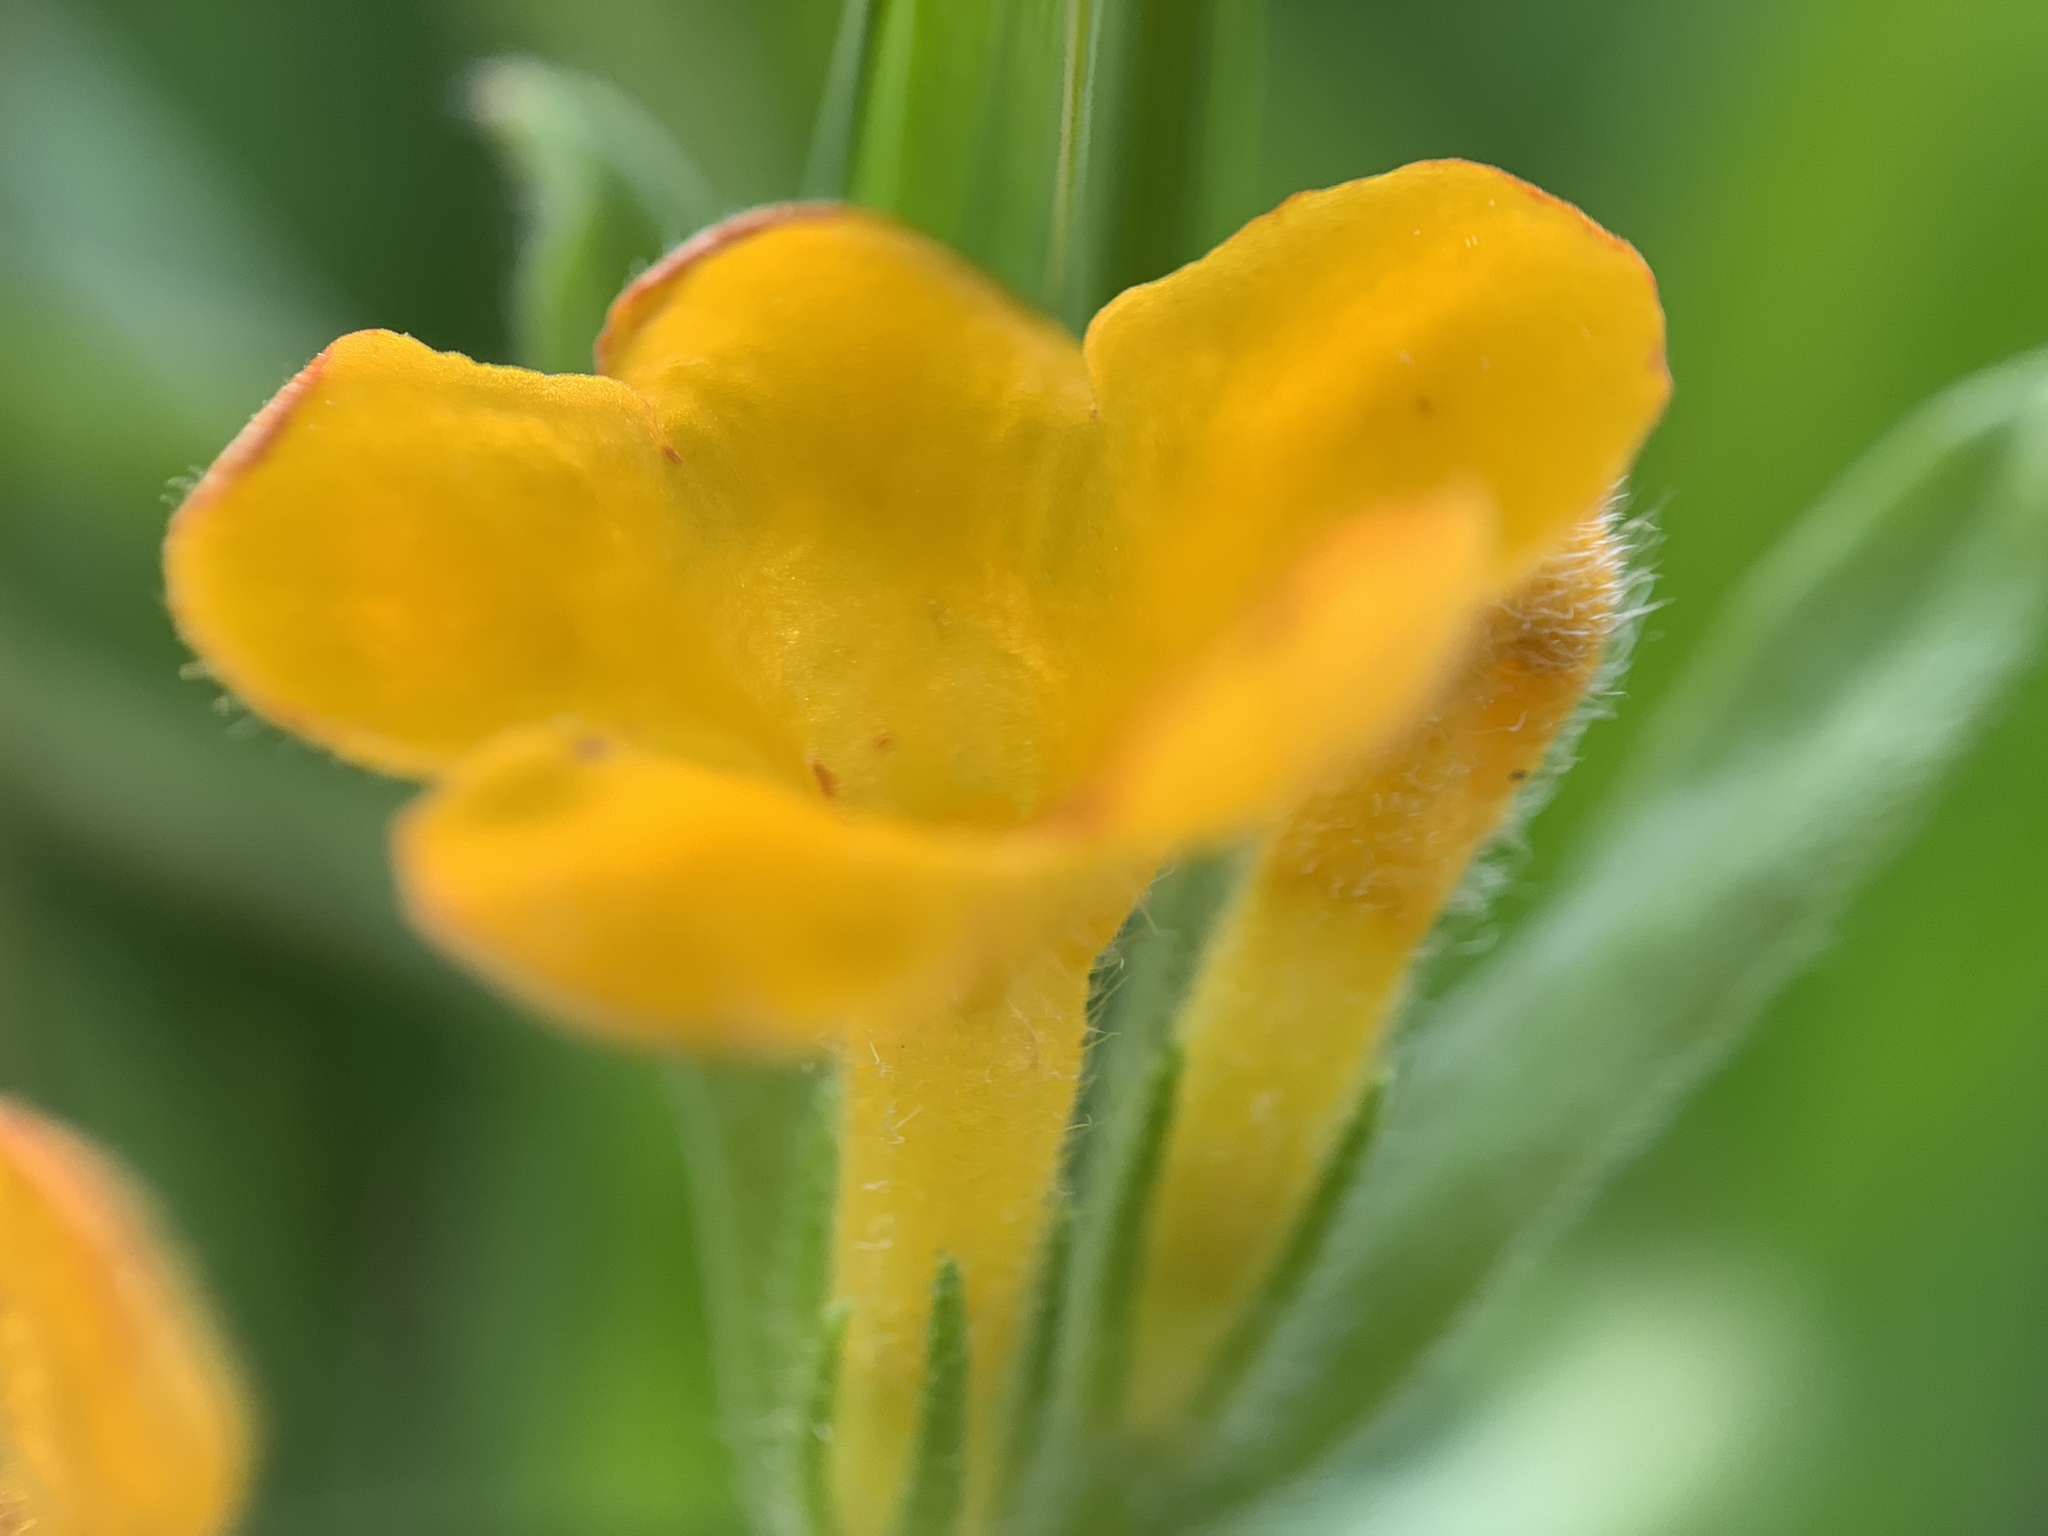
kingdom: Plantae
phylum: Tracheophyta
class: Magnoliopsida
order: Boraginales
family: Boraginaceae
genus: Lithospermum
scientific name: Lithospermum canescens
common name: Hoary puccoon
